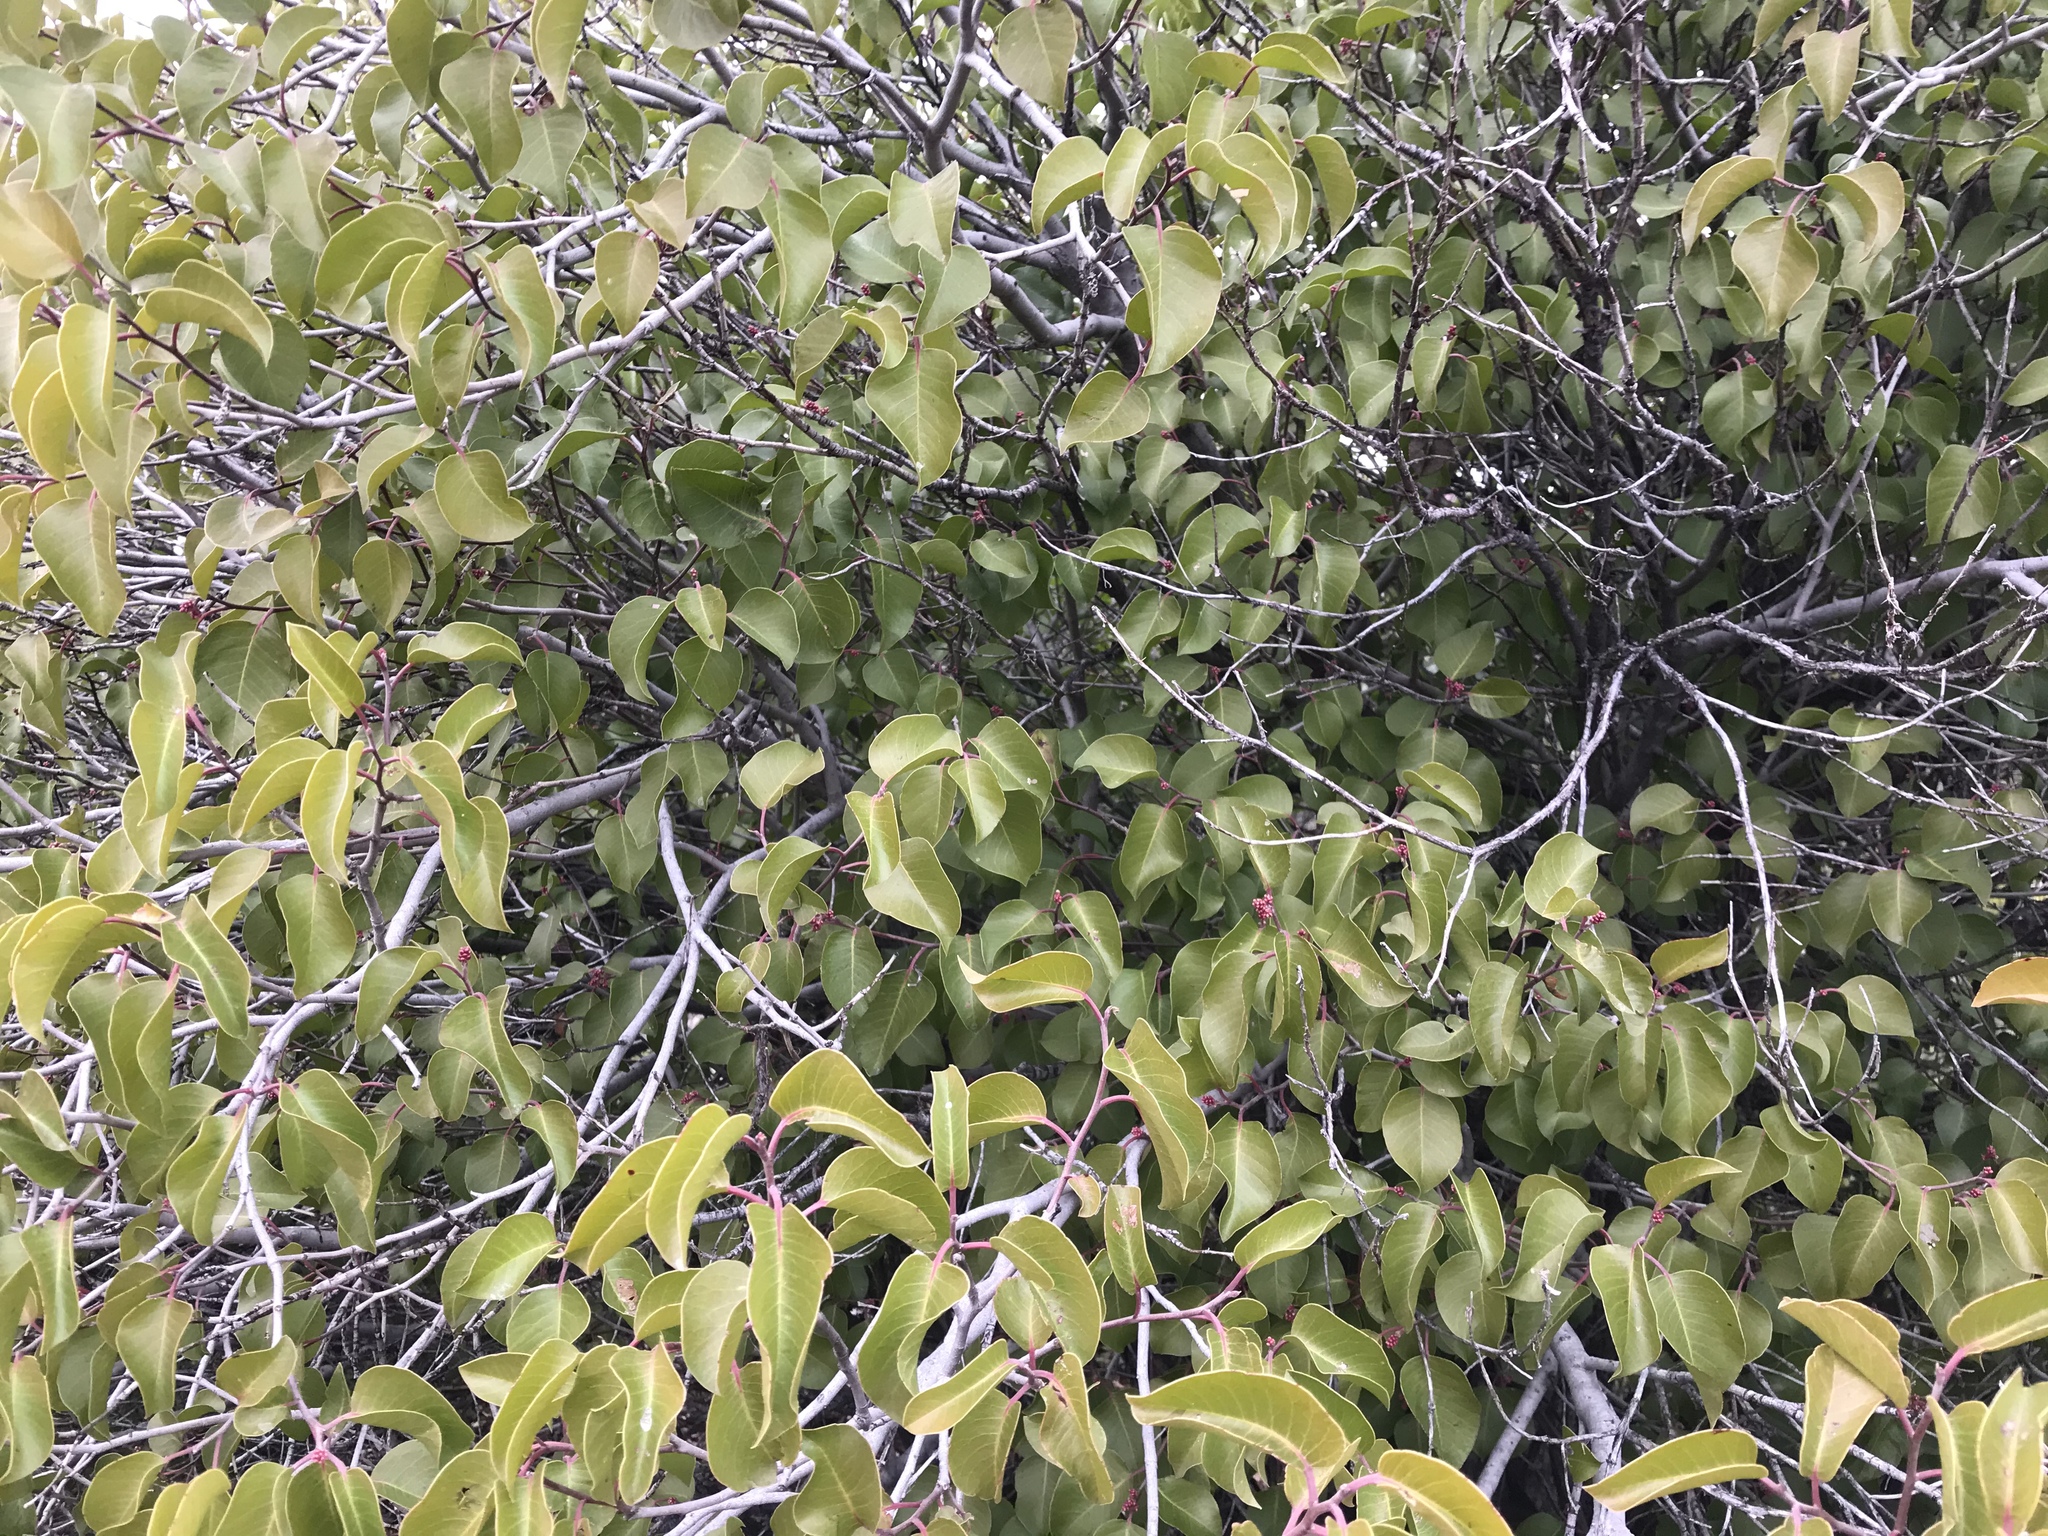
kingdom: Plantae
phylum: Tracheophyta
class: Magnoliopsida
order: Sapindales
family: Anacardiaceae
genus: Rhus
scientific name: Rhus ovata
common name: Sugar sumac
